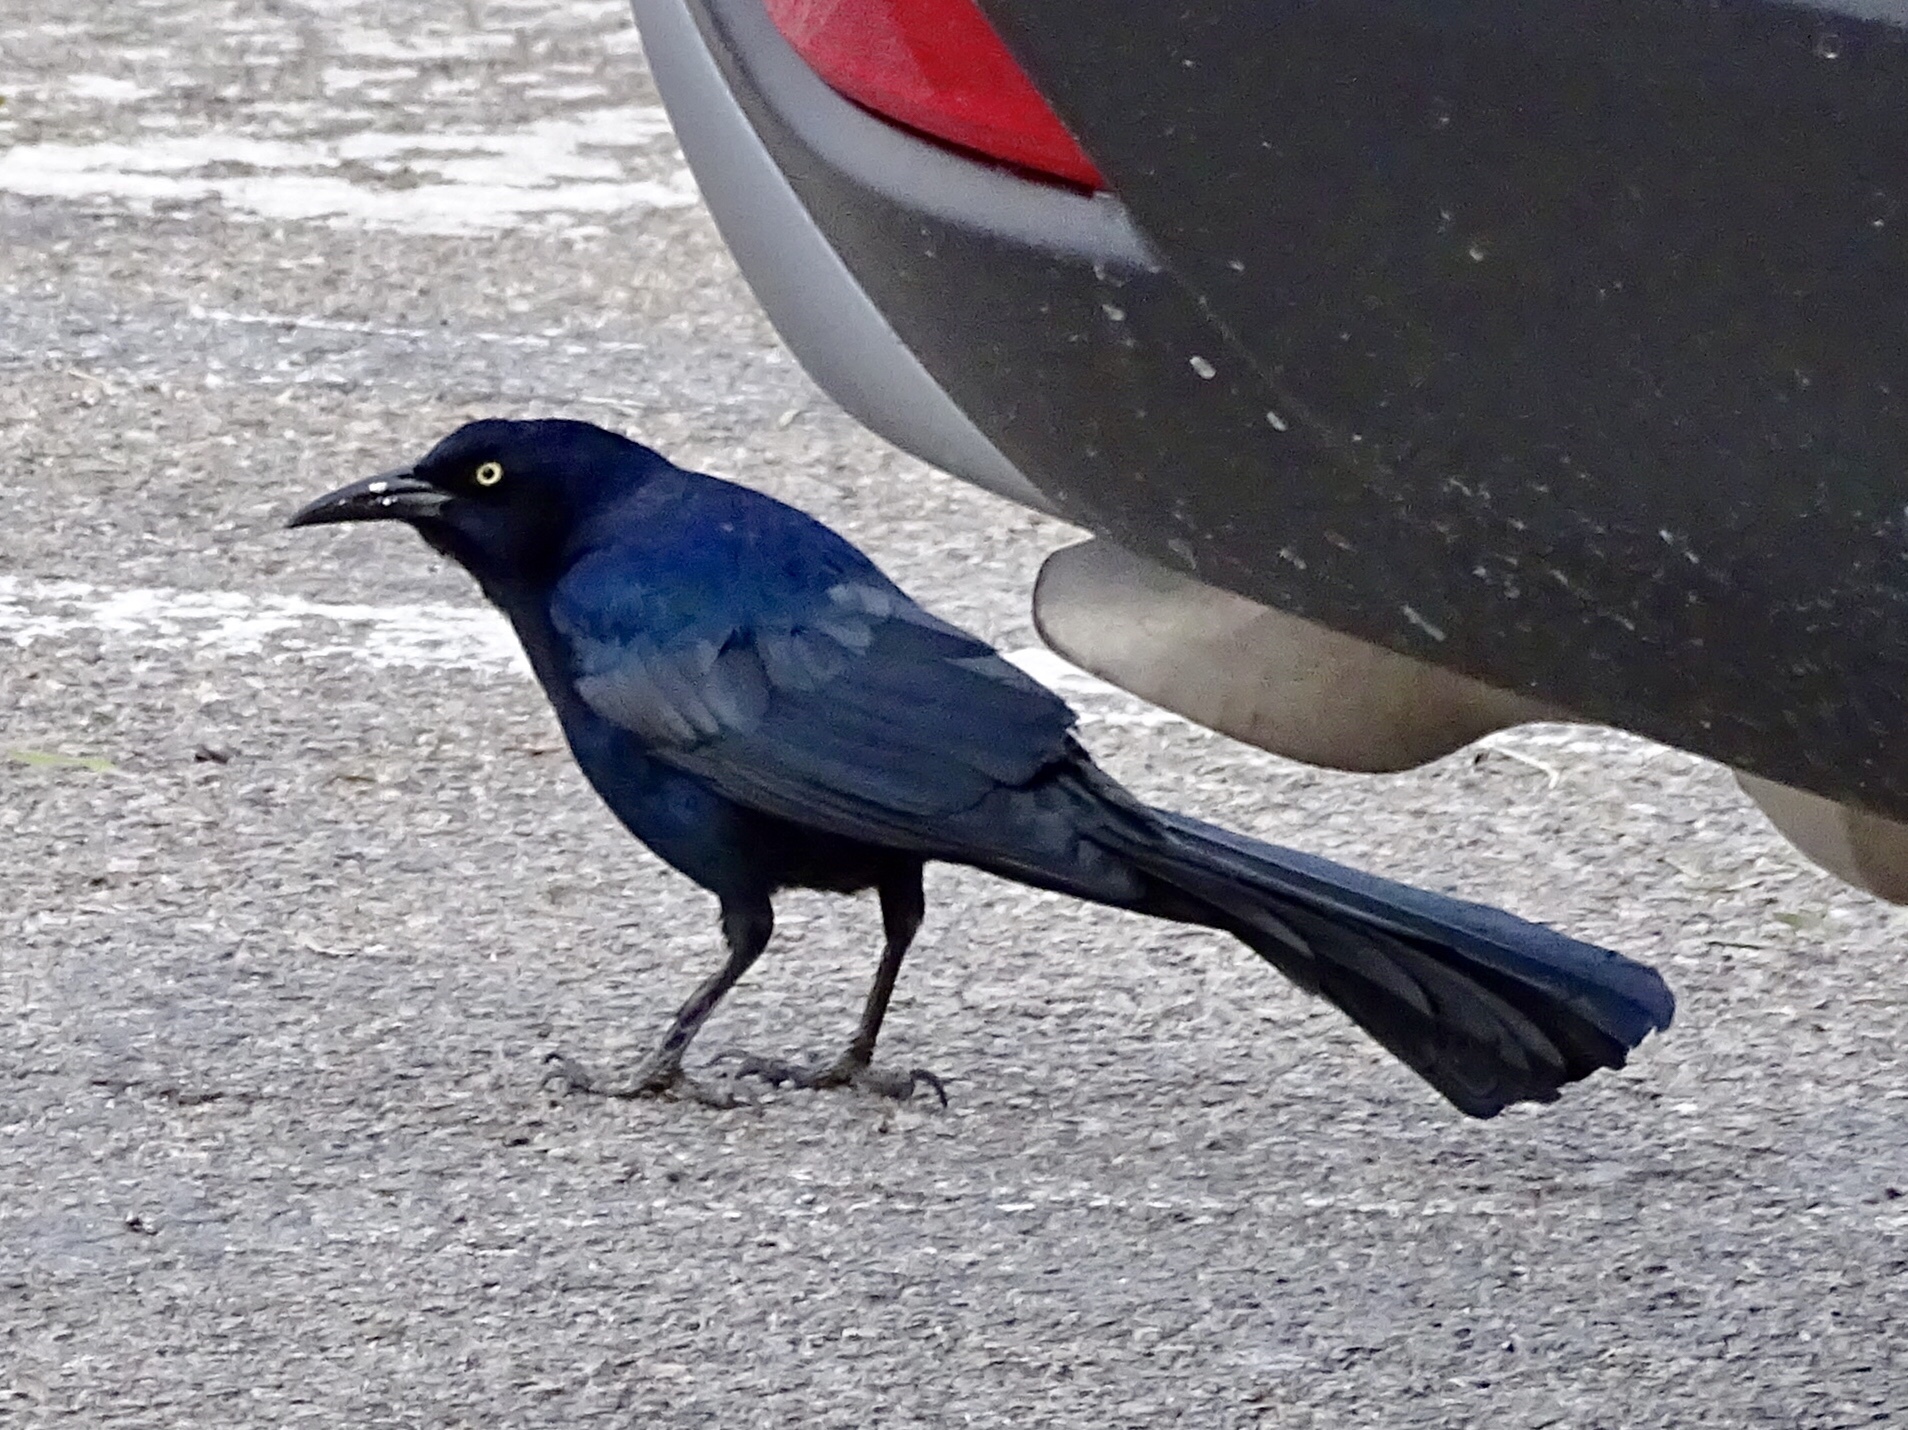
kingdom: Animalia
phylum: Chordata
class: Aves
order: Passeriformes
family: Icteridae
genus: Quiscalus
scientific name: Quiscalus mexicanus
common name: Great-tailed grackle
